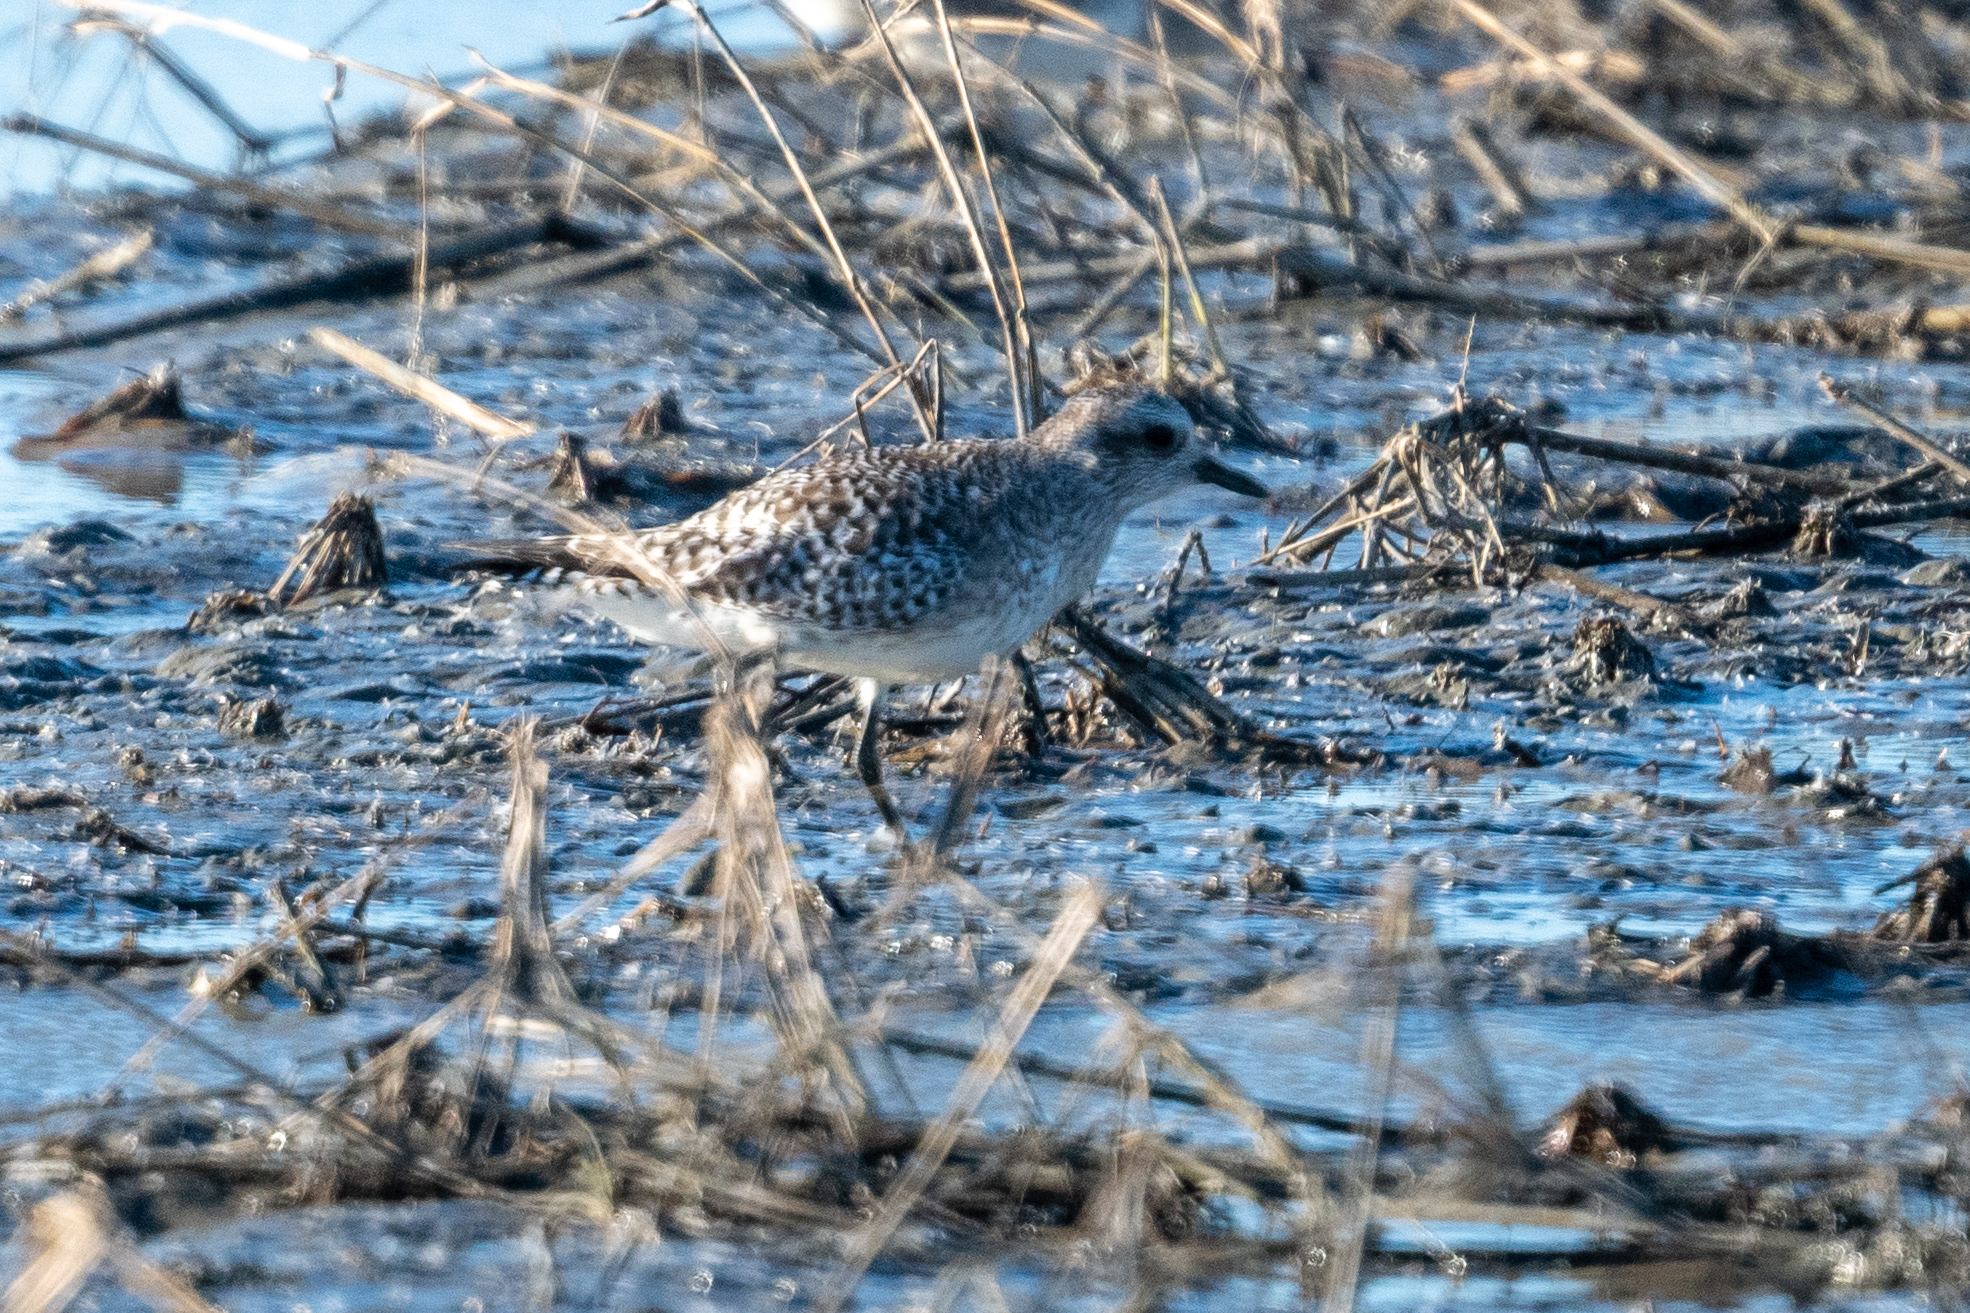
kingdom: Animalia
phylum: Chordata
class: Aves
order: Charadriiformes
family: Charadriidae
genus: Pluvialis
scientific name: Pluvialis squatarola
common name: Grey plover
